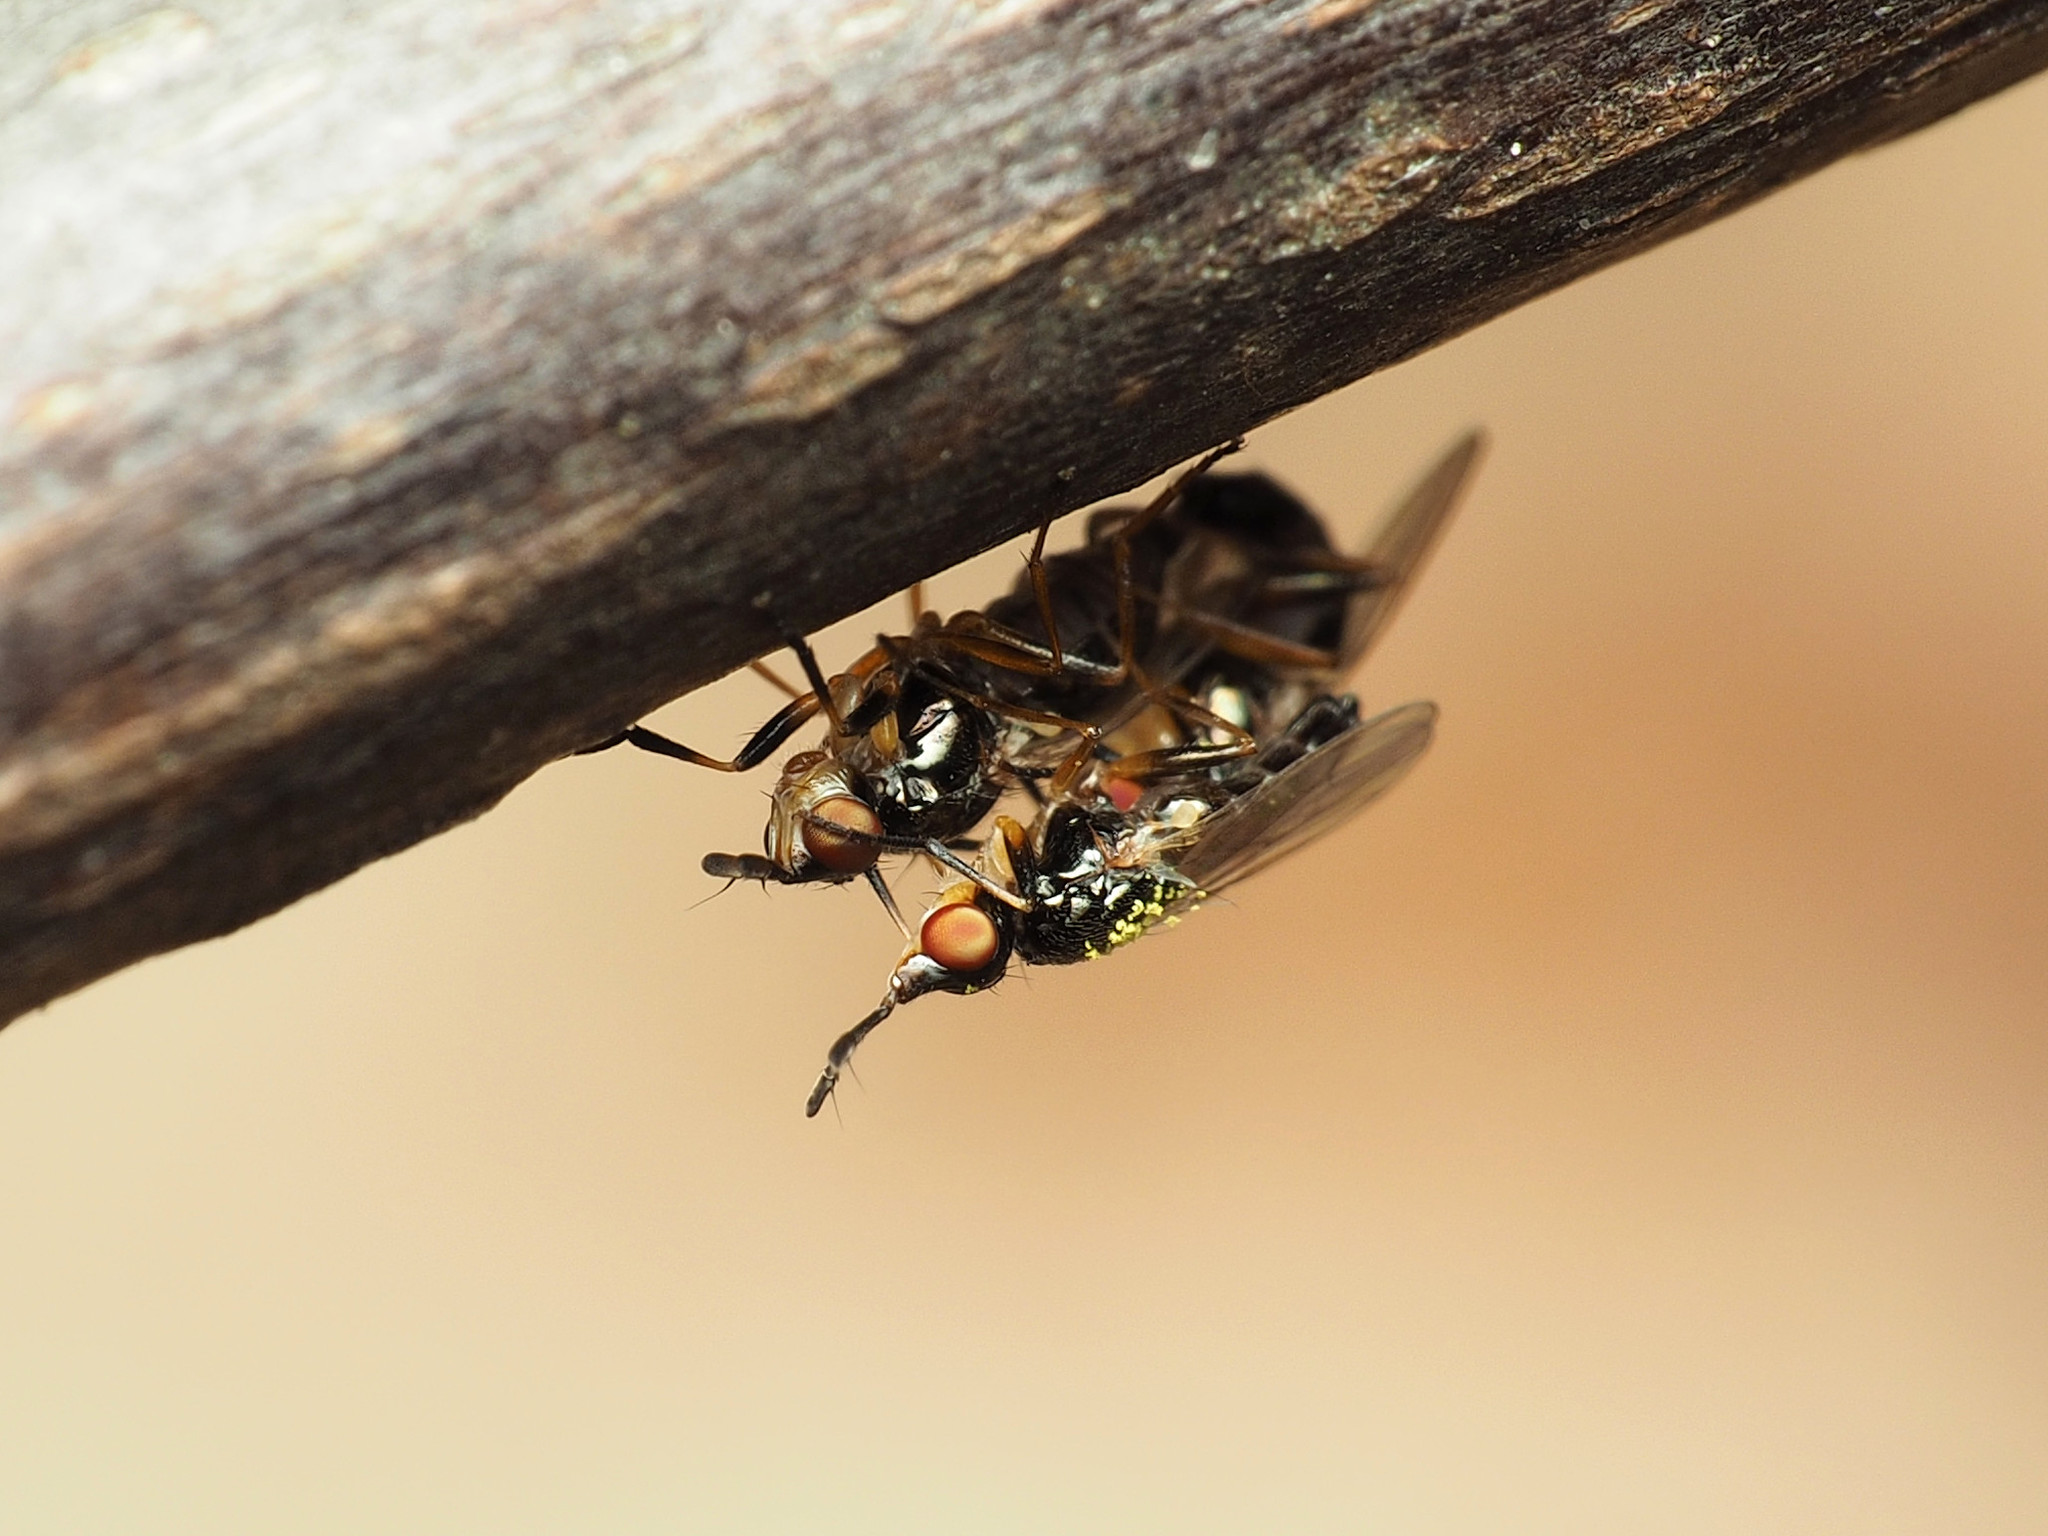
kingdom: Animalia
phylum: Arthropoda
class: Insecta
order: Diptera
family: Piophilidae
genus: Prochyliza
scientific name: Prochyliza xanthostoma
